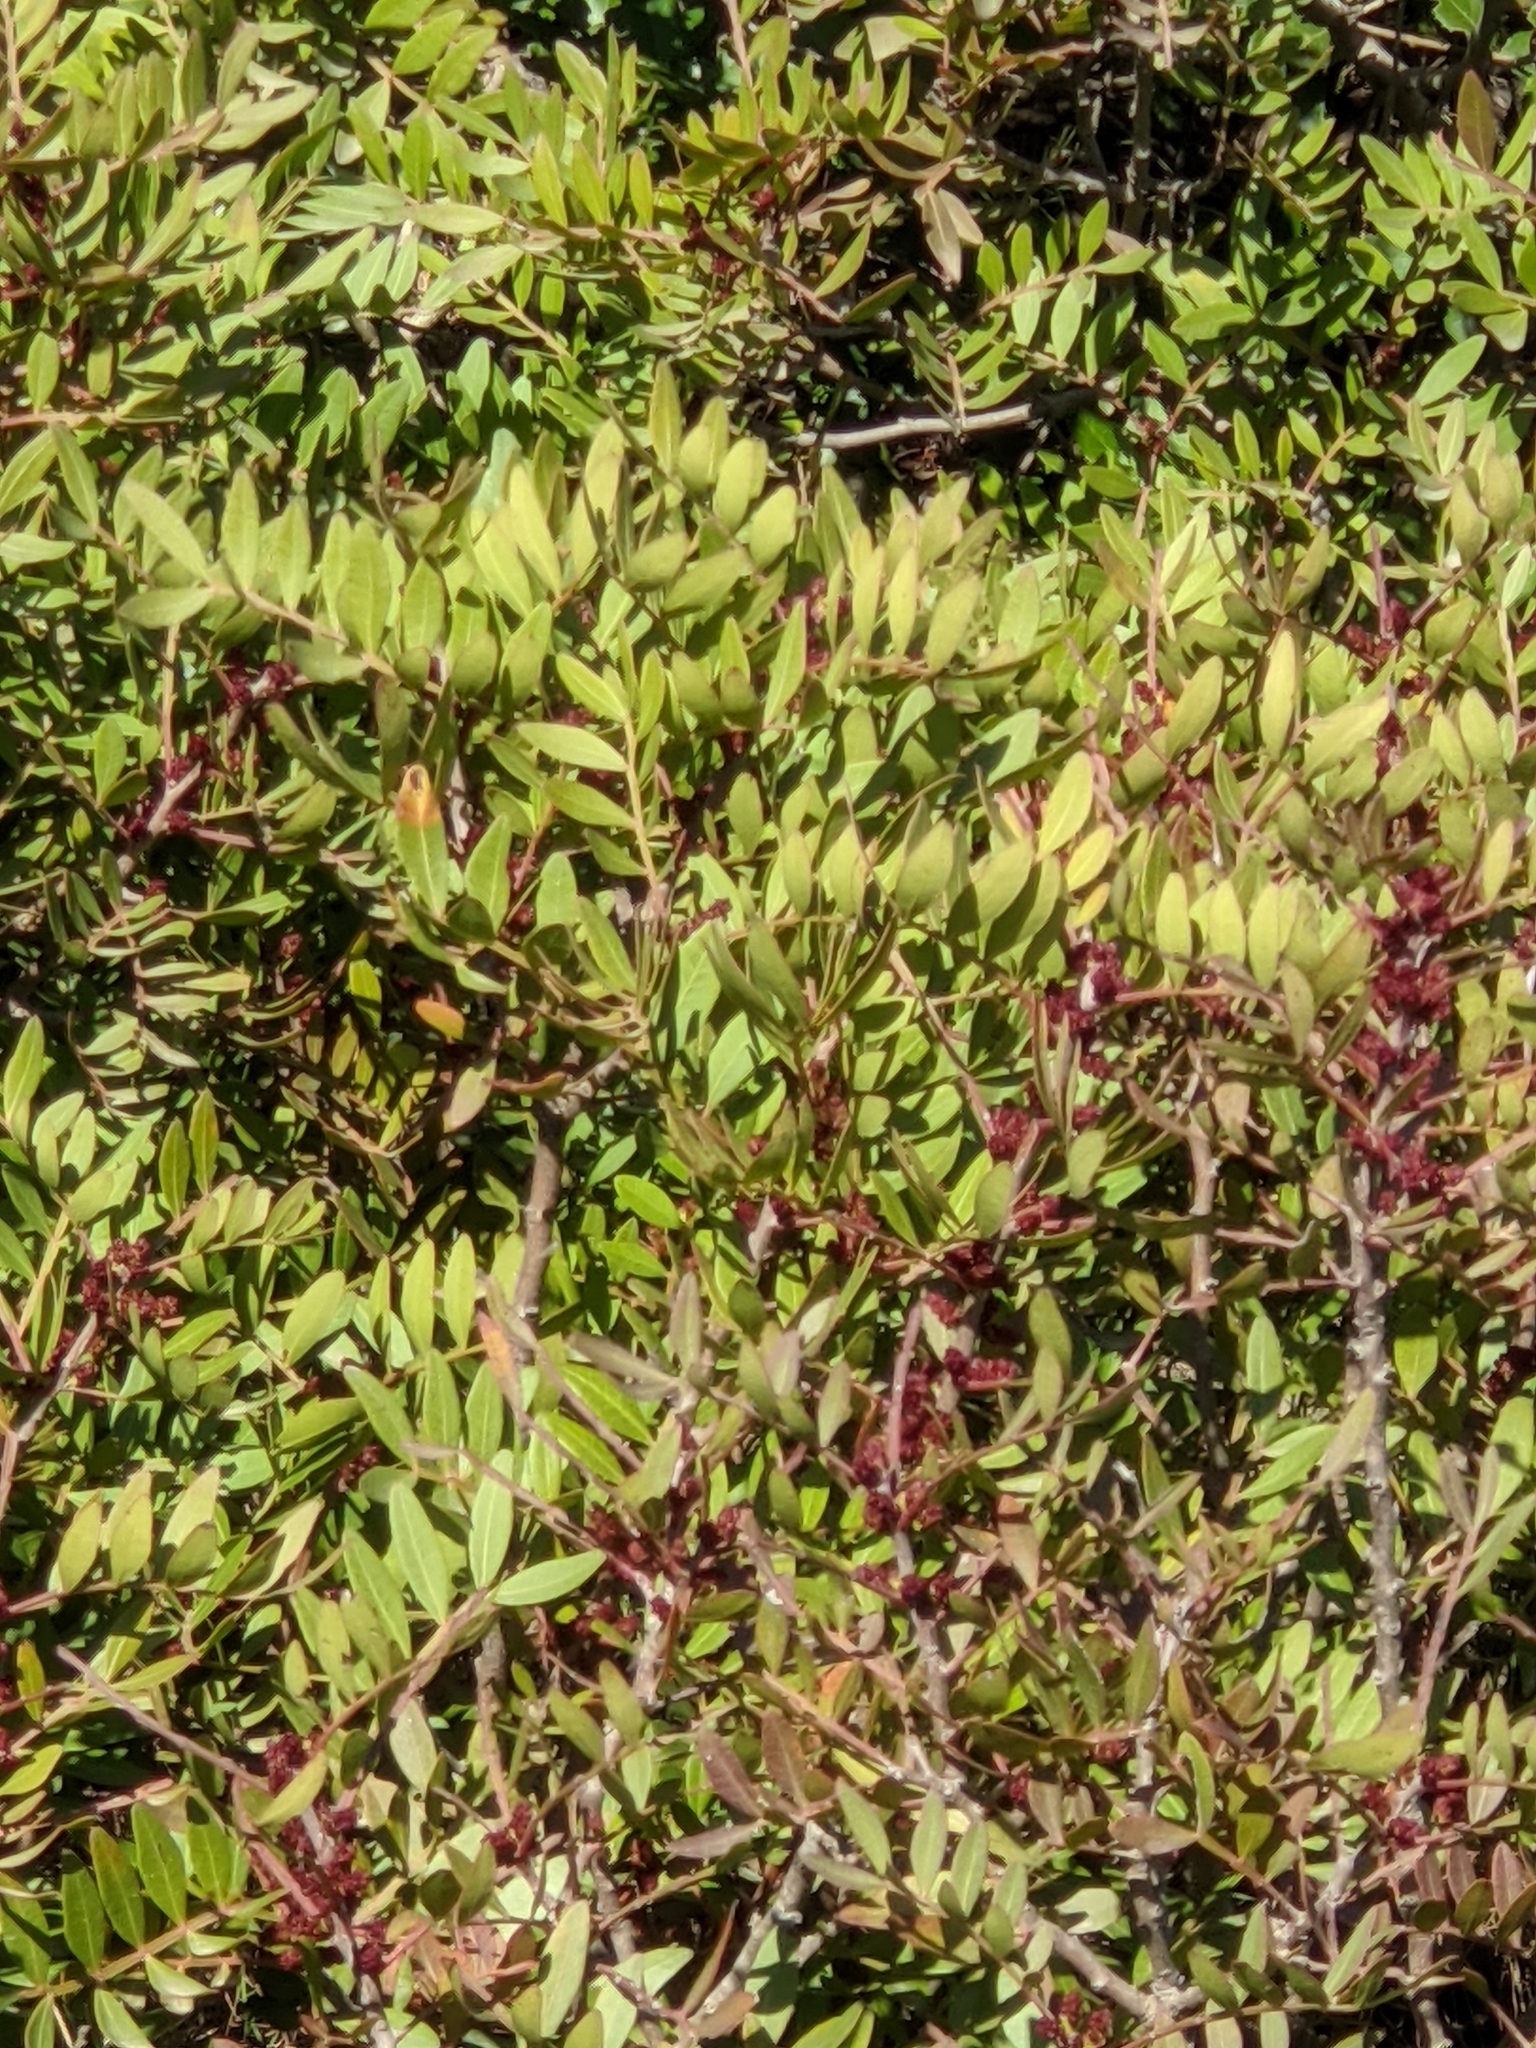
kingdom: Plantae
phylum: Tracheophyta
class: Magnoliopsida
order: Sapindales
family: Anacardiaceae
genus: Pistacia
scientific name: Pistacia lentiscus
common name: Lentisk
